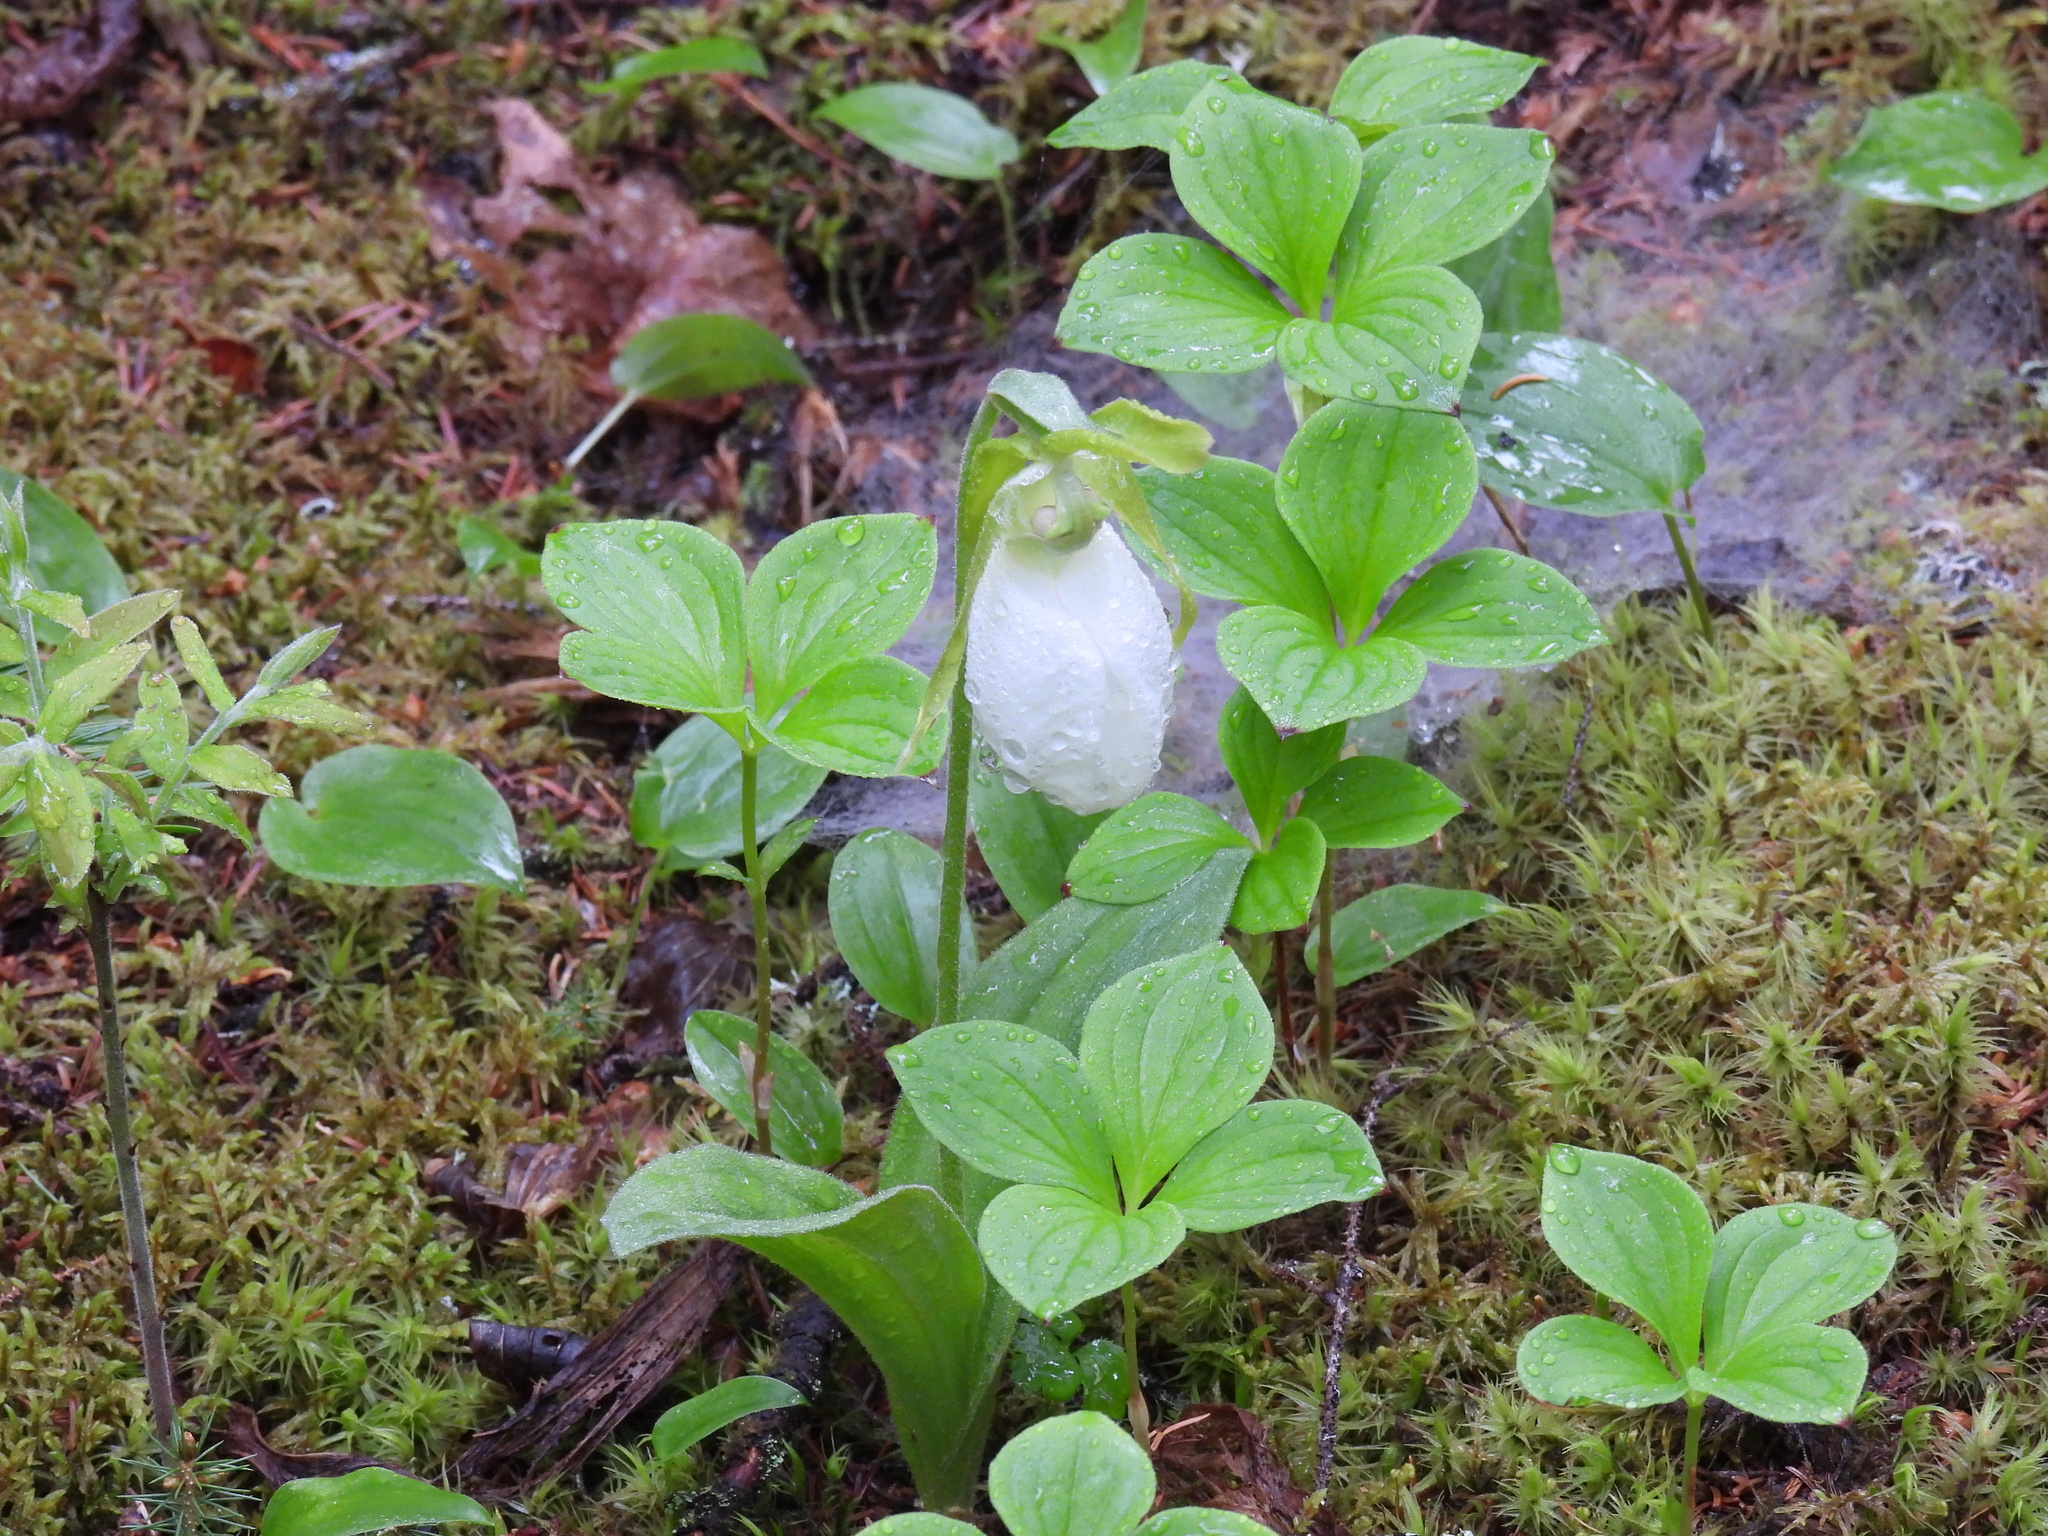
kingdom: Plantae
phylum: Tracheophyta
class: Liliopsida
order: Asparagales
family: Orchidaceae
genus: Cypripedium
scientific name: Cypripedium acaule
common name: Pink lady's-slipper
